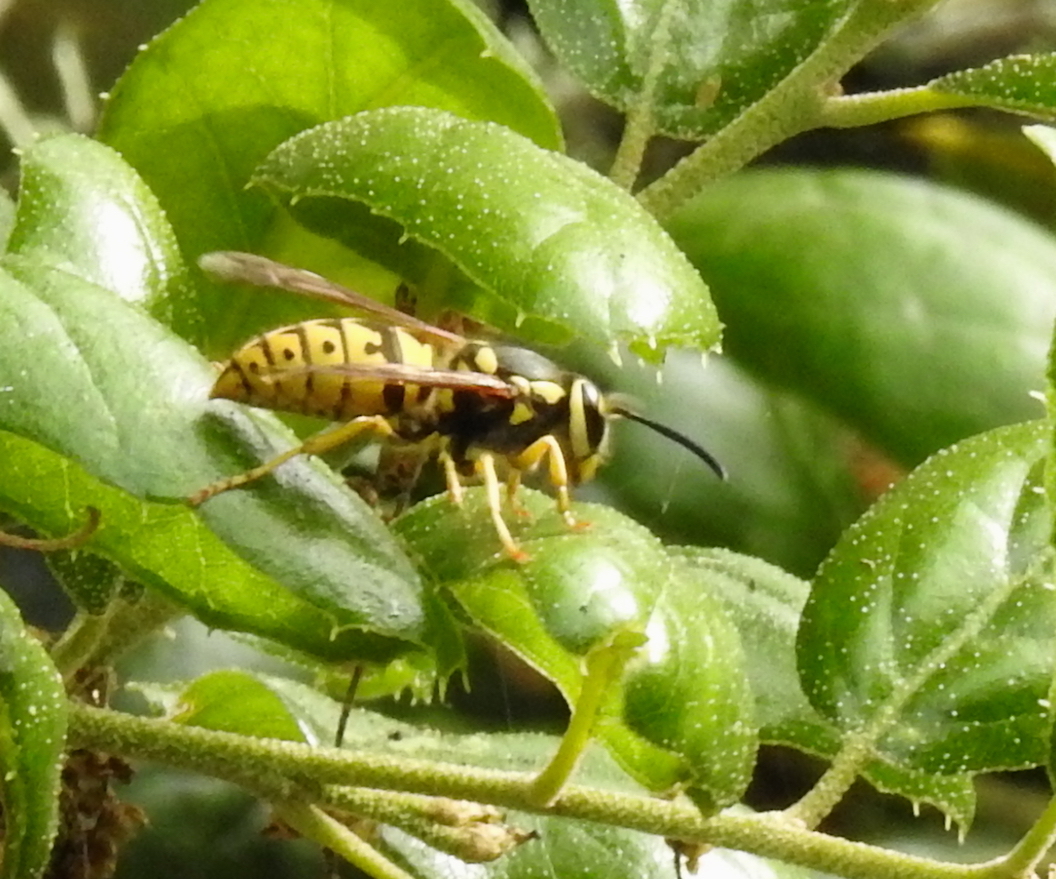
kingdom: Animalia
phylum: Arthropoda
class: Insecta
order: Hymenoptera
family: Vespidae
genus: Vespula
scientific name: Vespula pensylvanica
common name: Western yellowjacket
